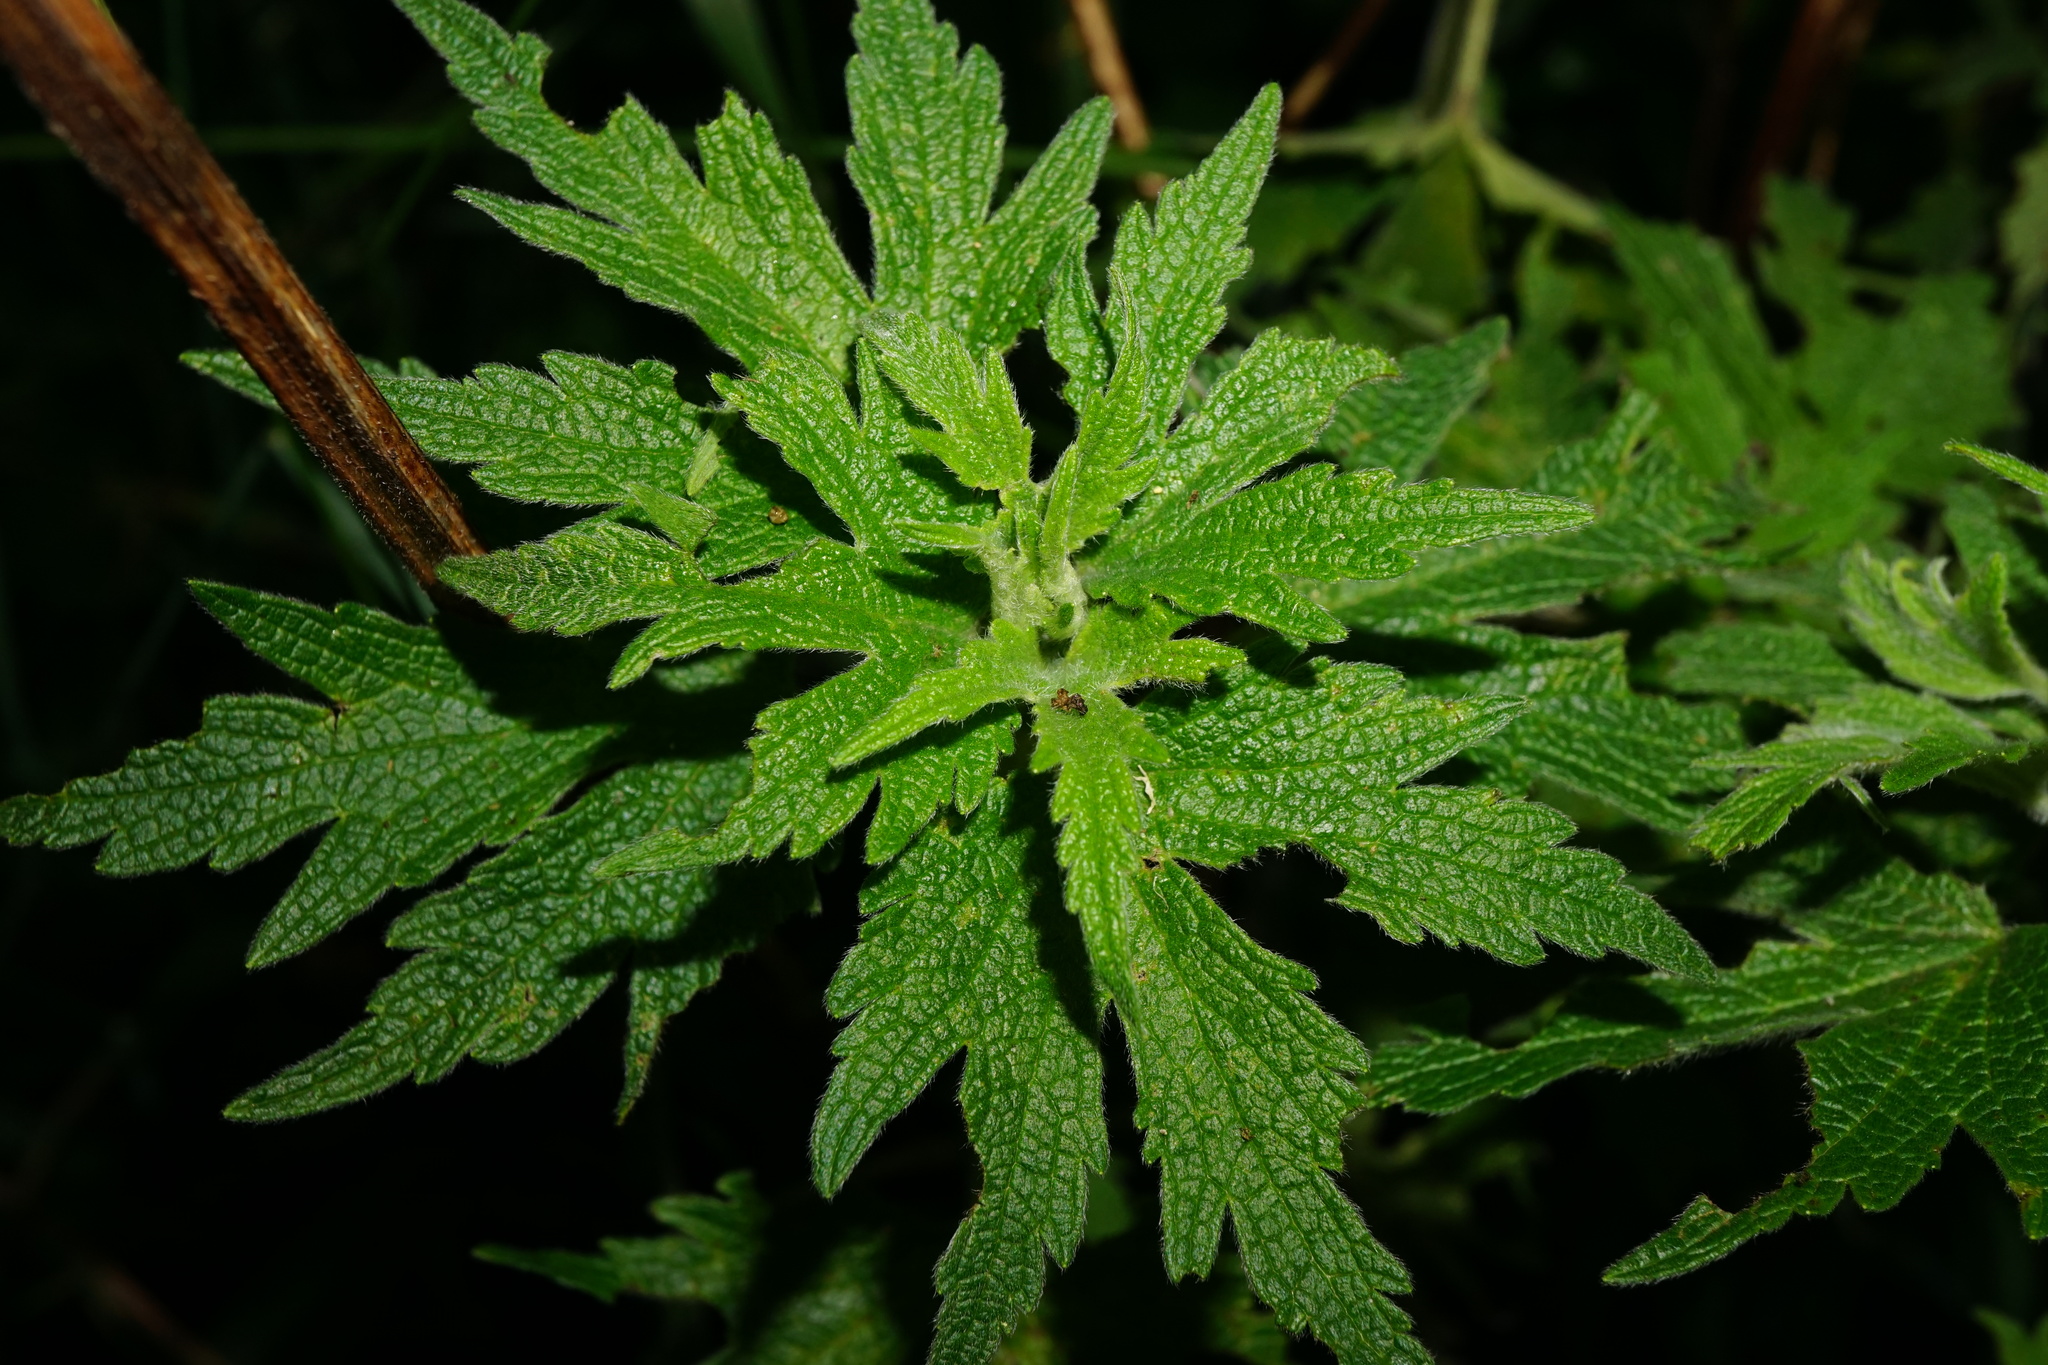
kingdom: Plantae
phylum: Tracheophyta
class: Magnoliopsida
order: Lamiales
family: Lamiaceae
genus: Leonurus
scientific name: Leonurus quinquelobatus
